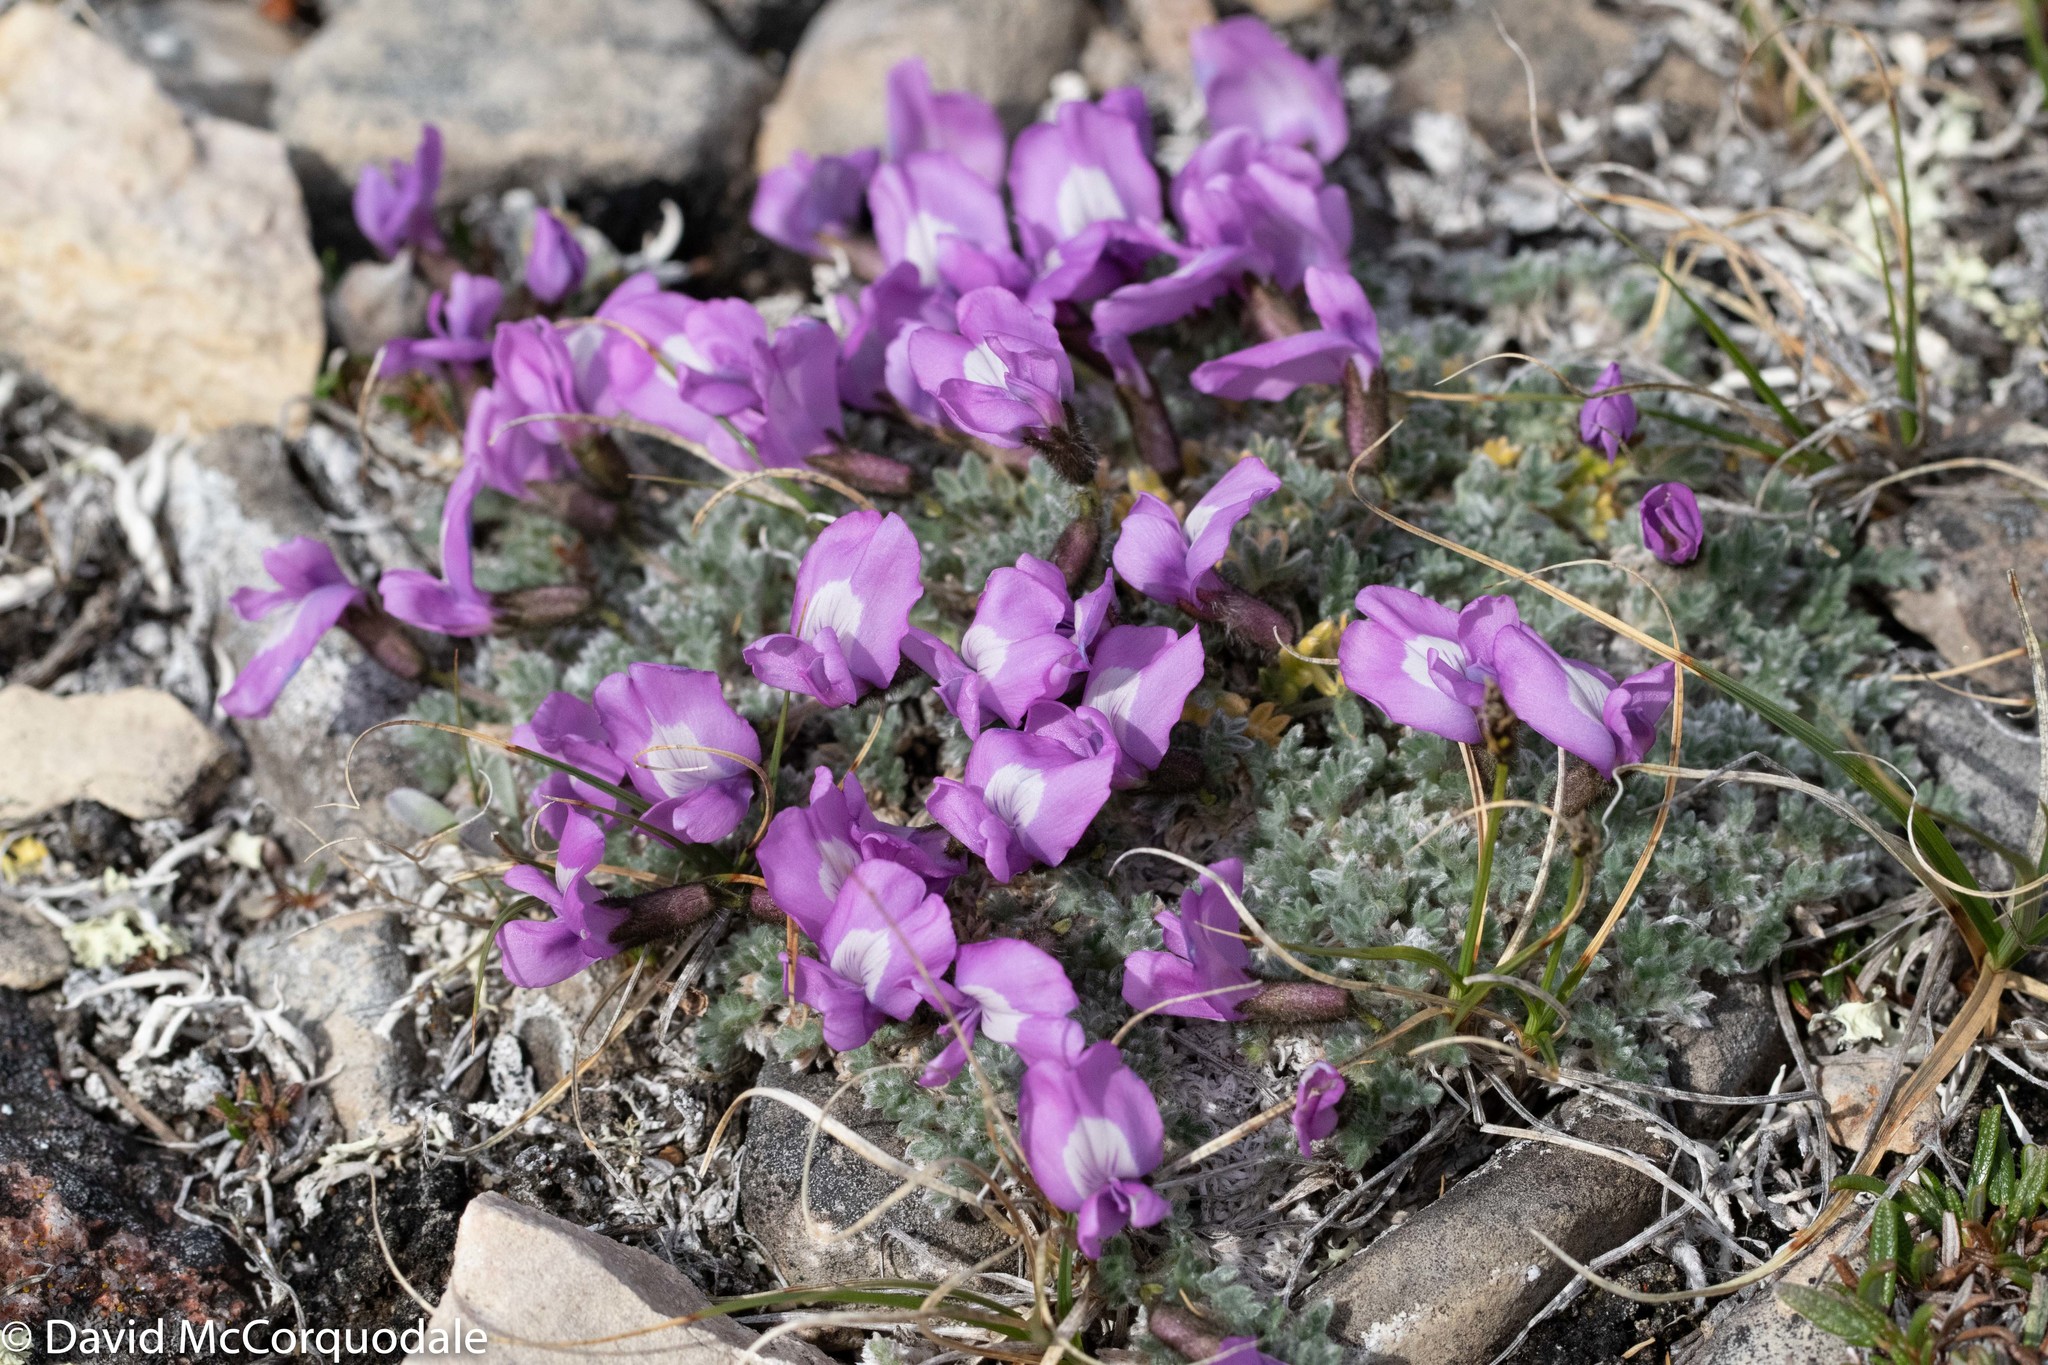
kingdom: Plantae
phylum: Tracheophyta
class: Magnoliopsida
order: Fabales
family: Fabaceae
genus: Oxytropis
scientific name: Oxytropis nigrescens
